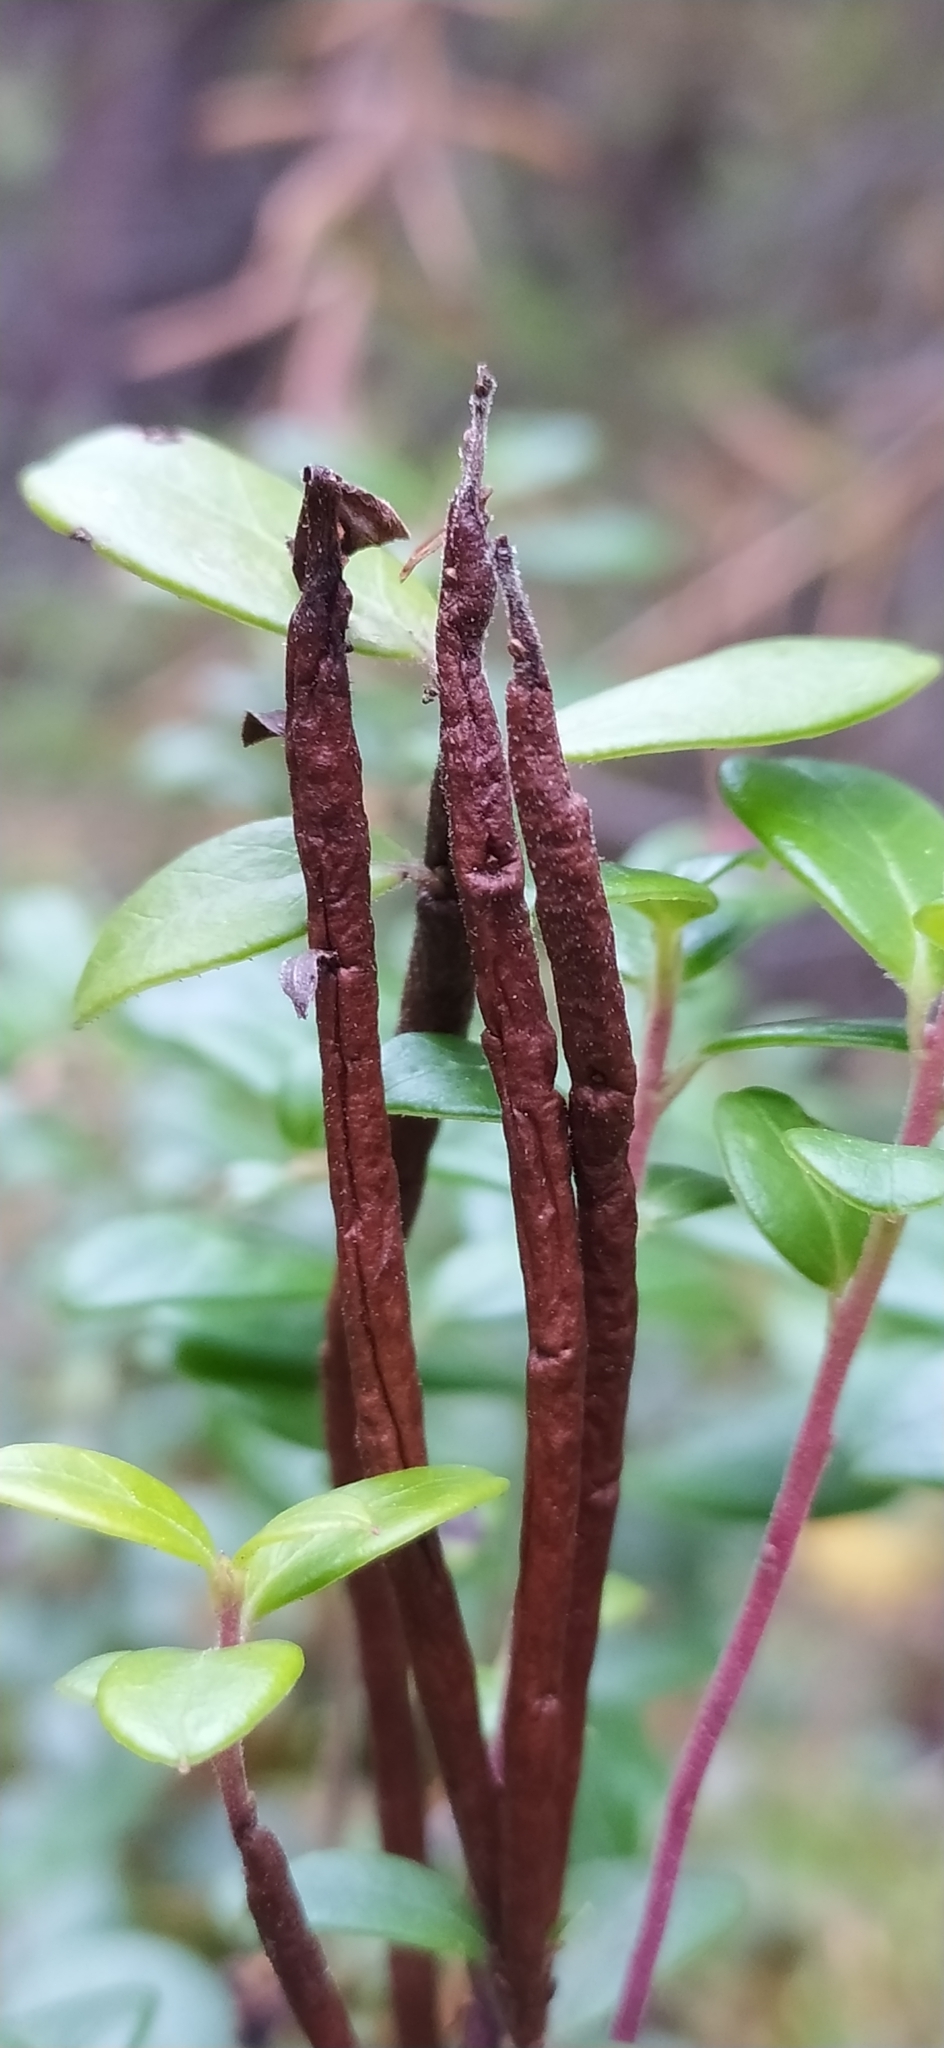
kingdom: Fungi
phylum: Basidiomycota
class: Pucciniomycetes
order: Pucciniales
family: Pucciniastraceae
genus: Calyptospora
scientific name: Calyptospora columnaris
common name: Huckleberry broom rust fungus
